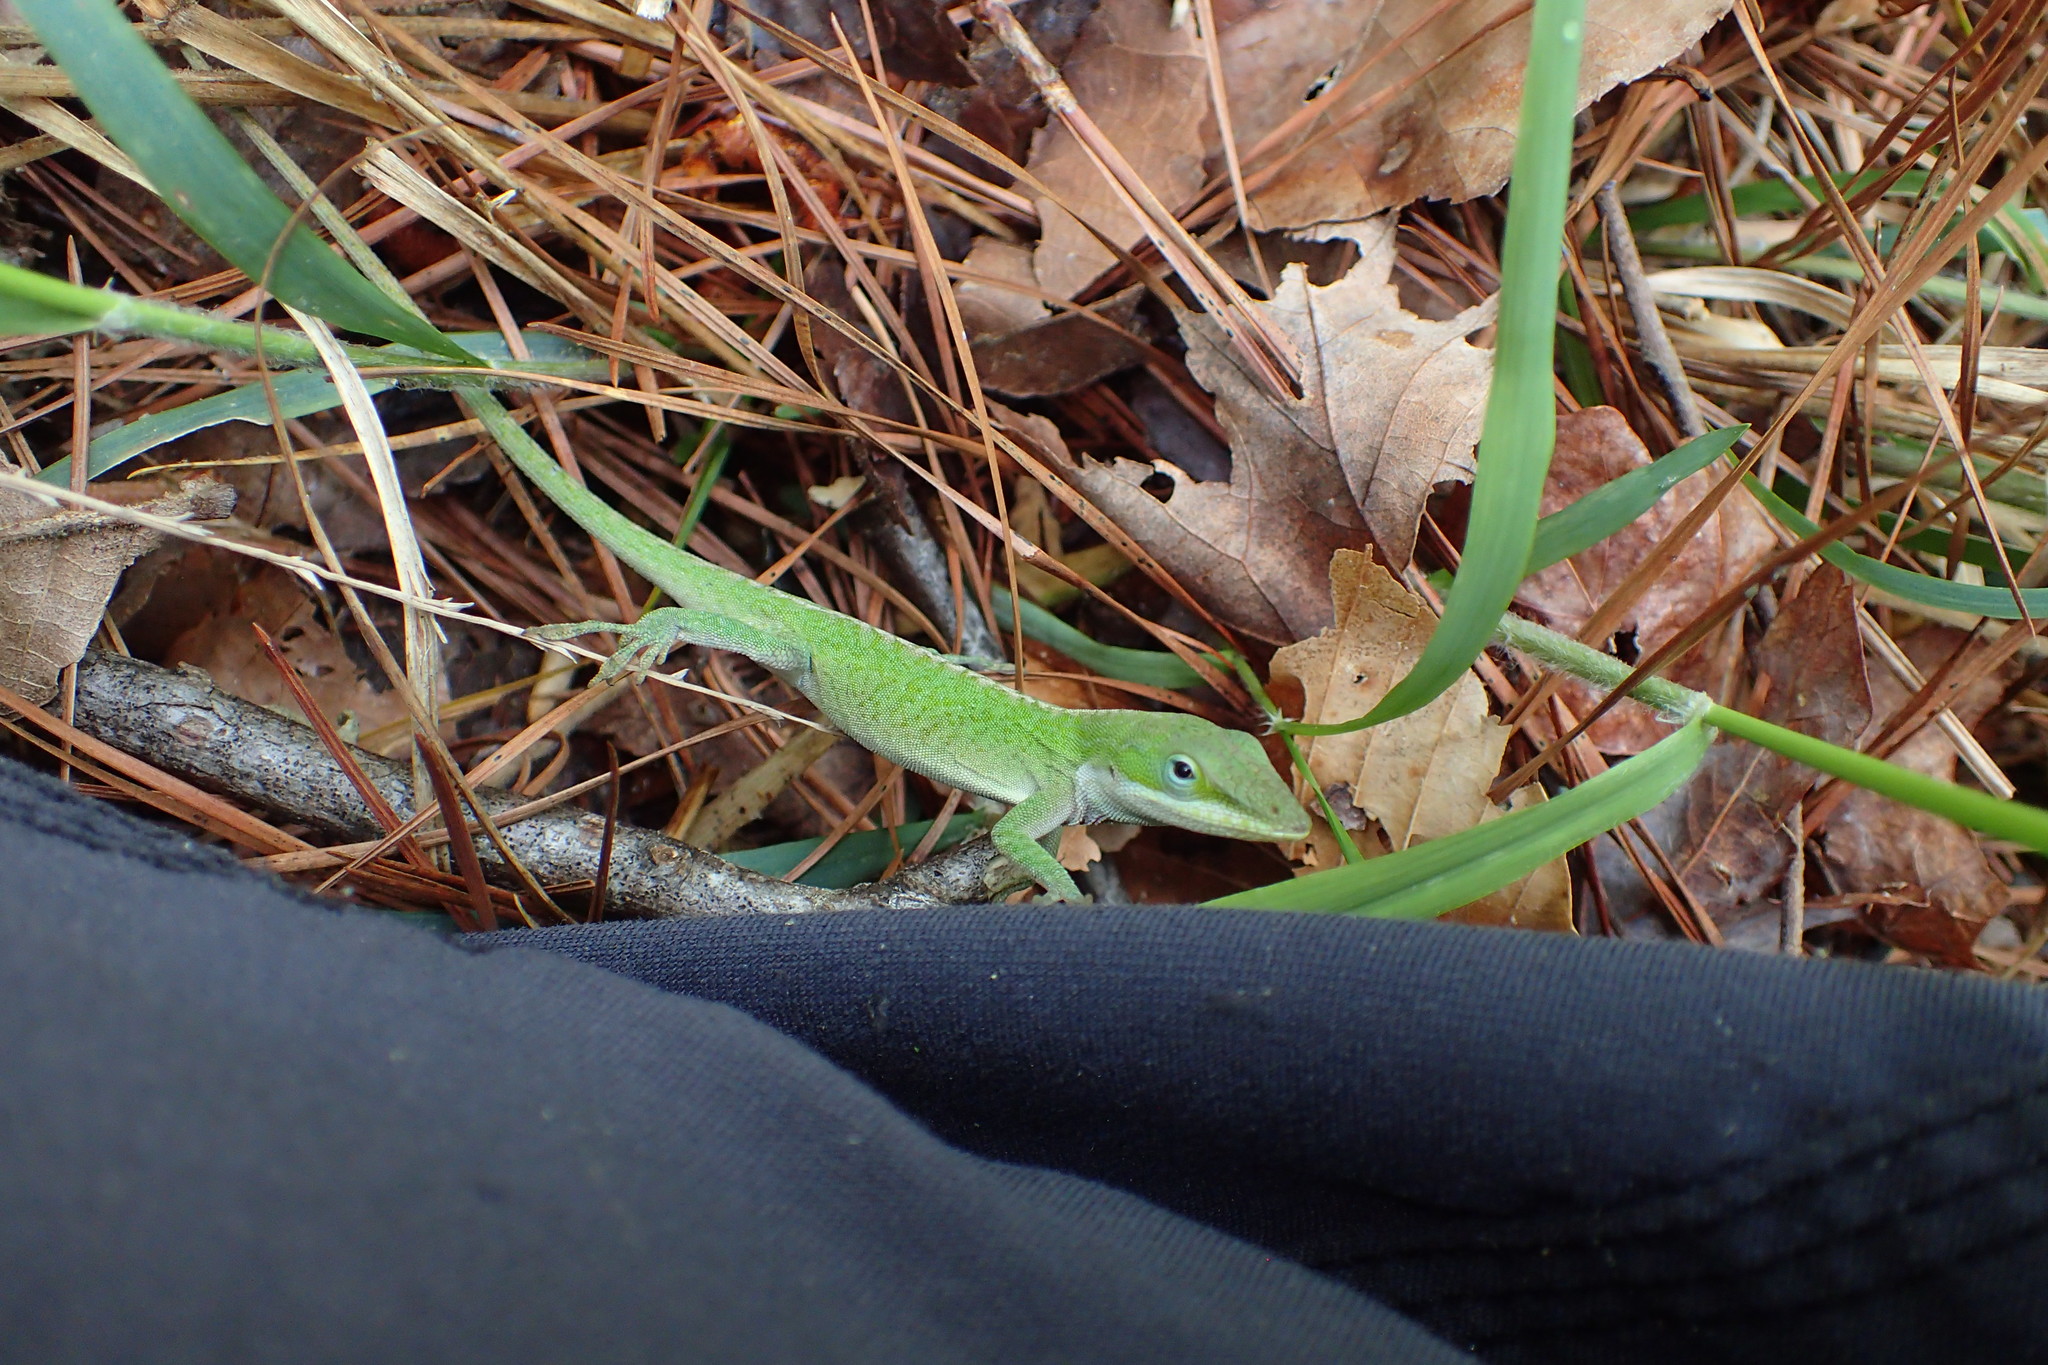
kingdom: Animalia
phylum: Chordata
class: Squamata
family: Dactyloidae
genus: Anolis
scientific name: Anolis carolinensis
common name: Green anole
